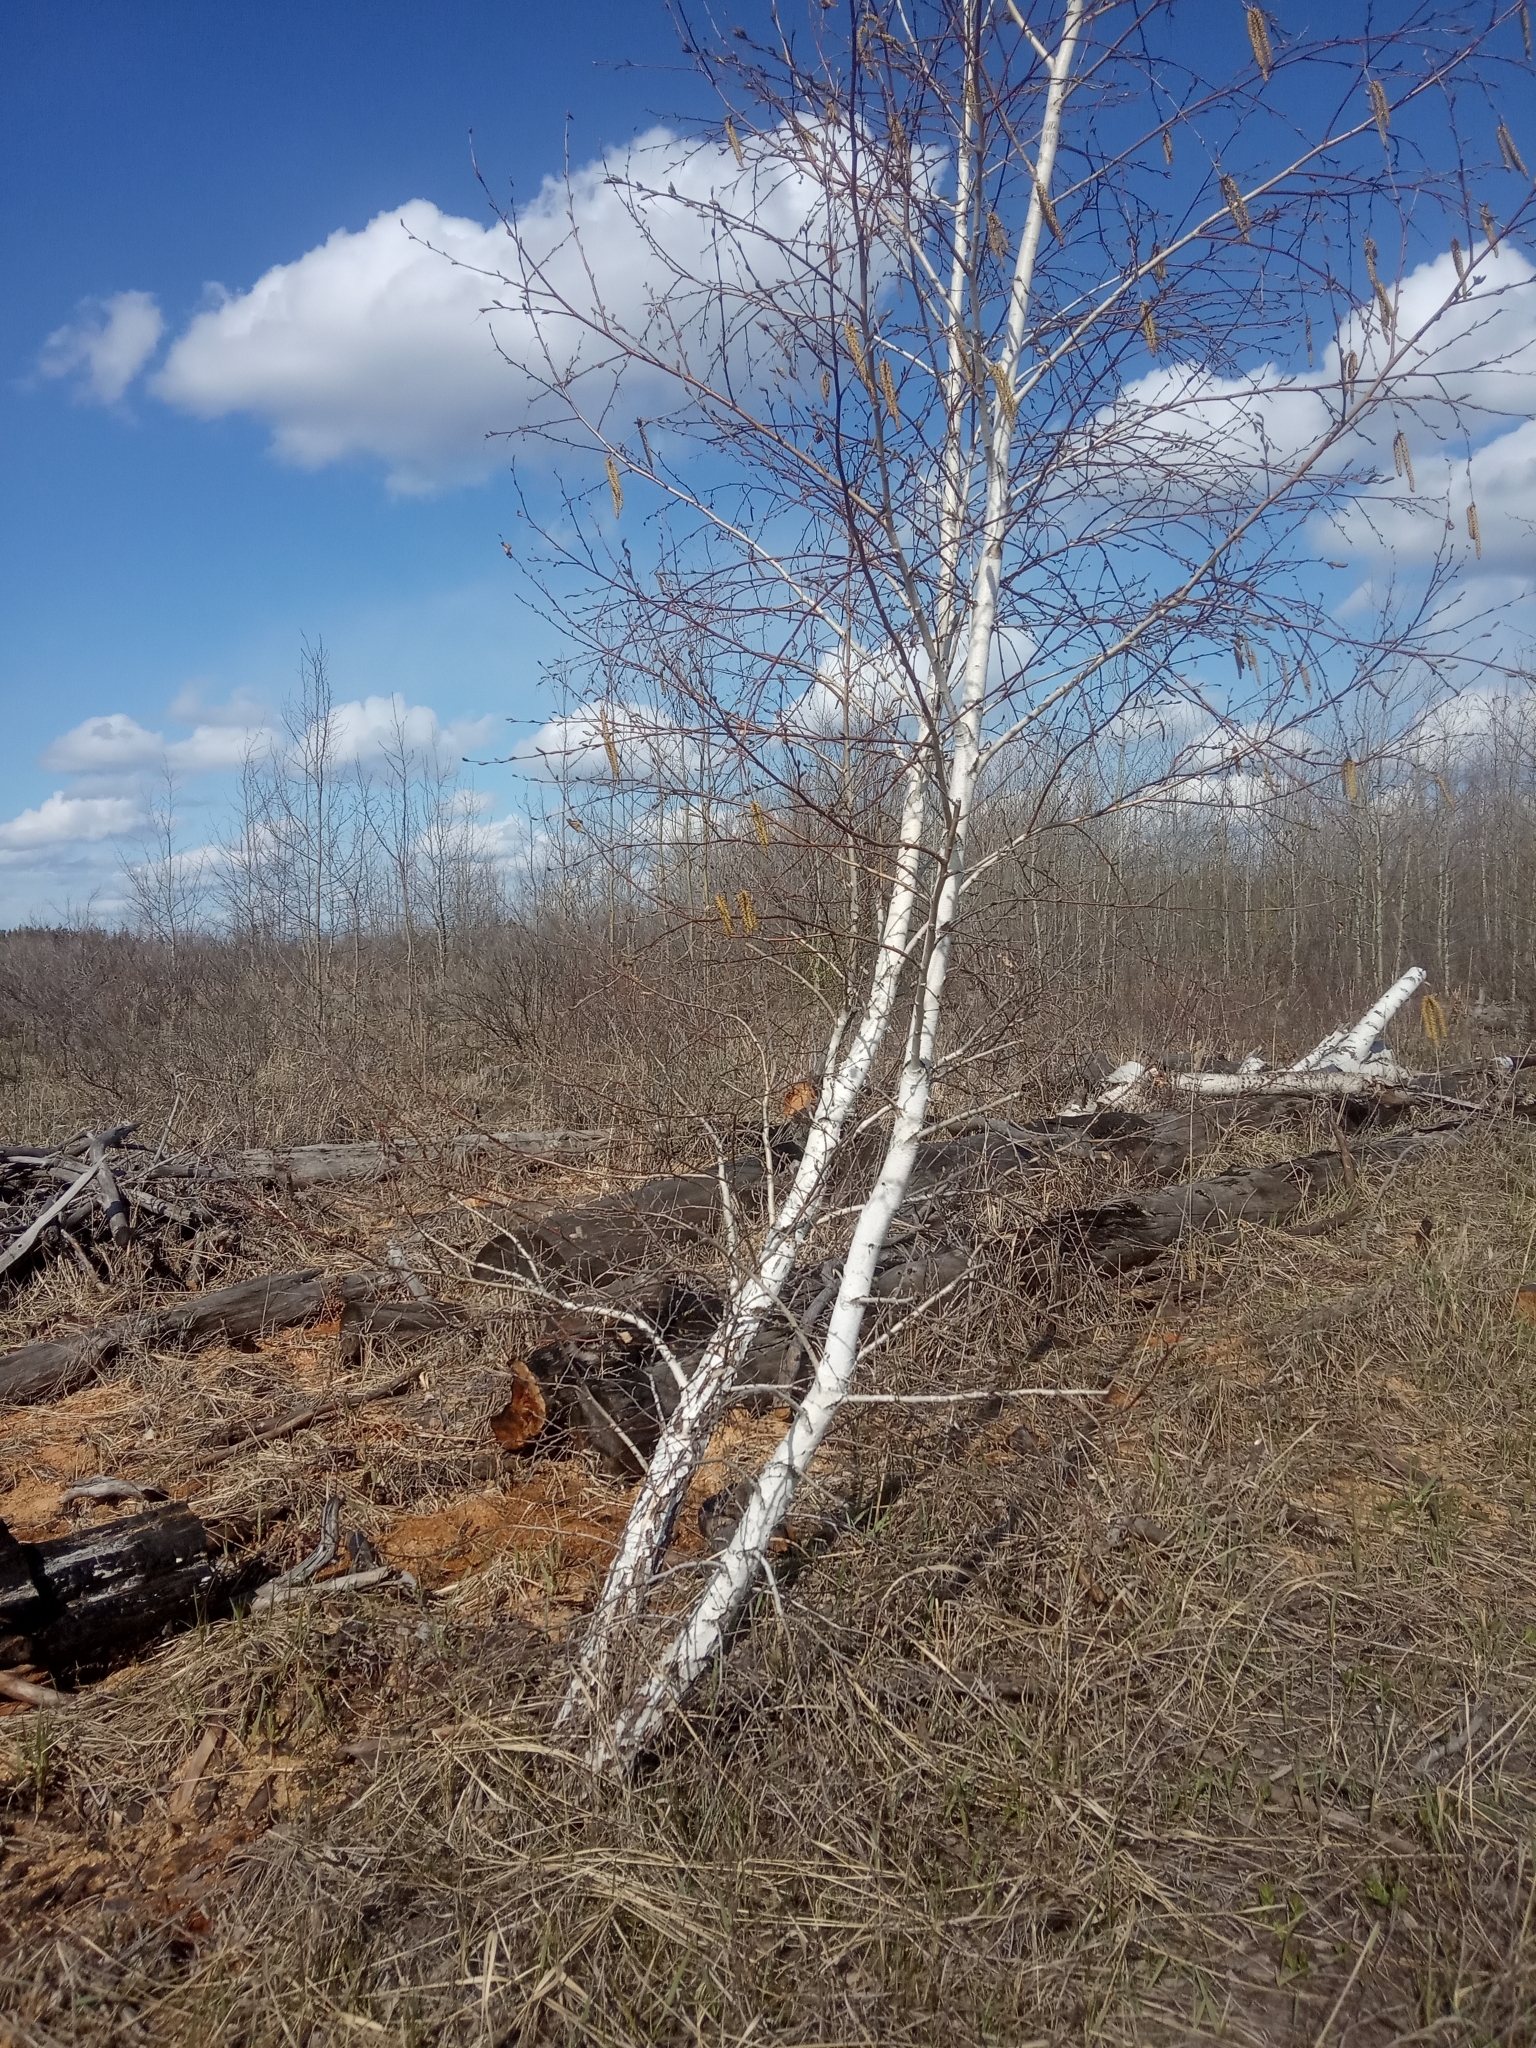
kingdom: Plantae
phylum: Tracheophyta
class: Magnoliopsida
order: Fagales
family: Betulaceae
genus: Betula
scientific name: Betula pendula
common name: Silver birch
